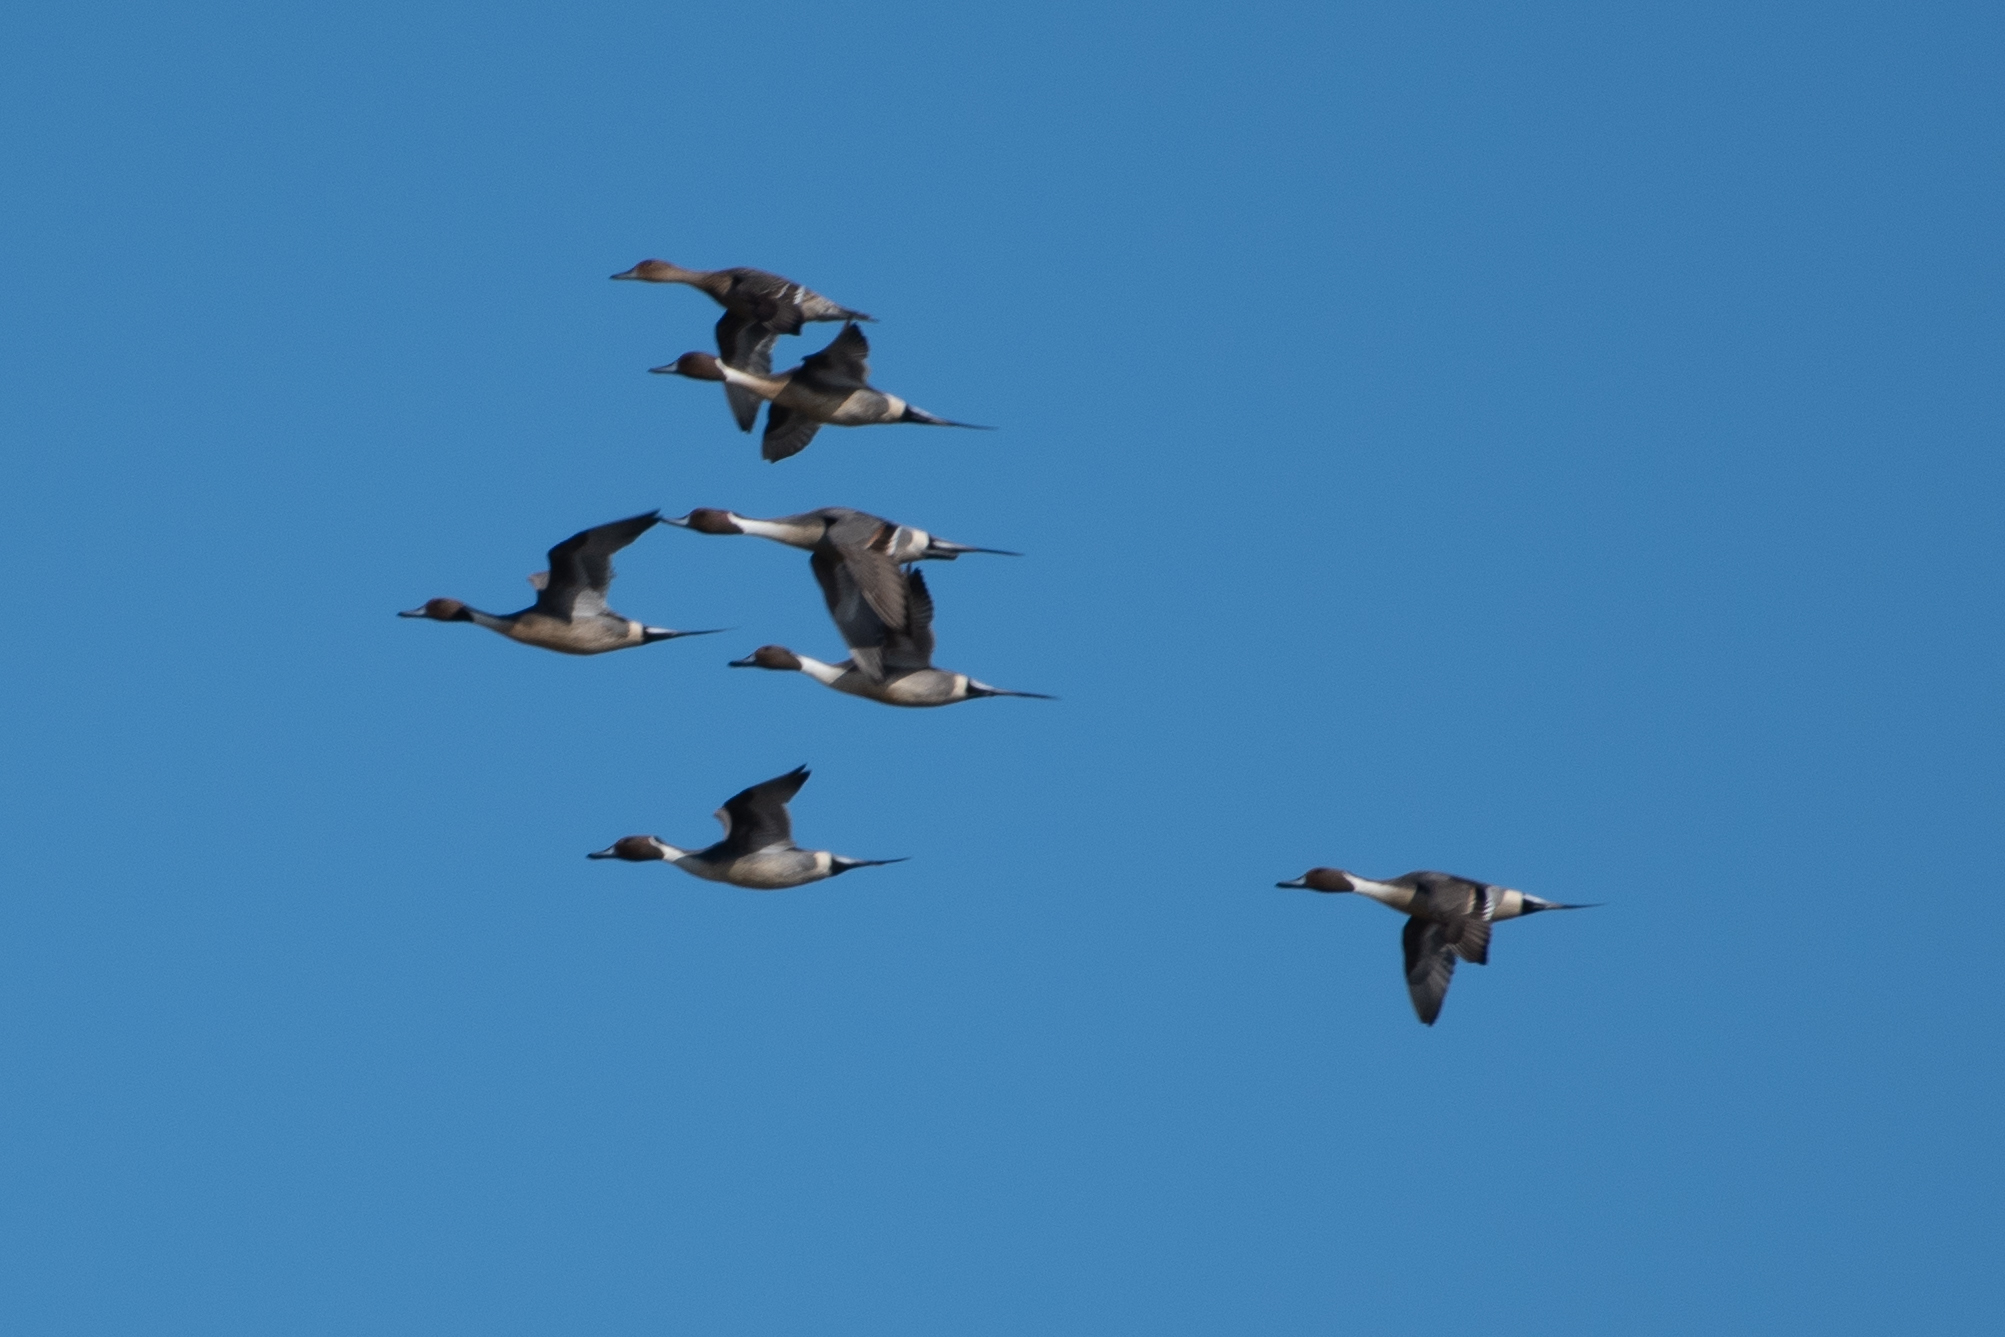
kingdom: Animalia
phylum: Chordata
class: Aves
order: Anseriformes
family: Anatidae
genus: Anas
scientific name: Anas acuta
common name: Northern pintail
